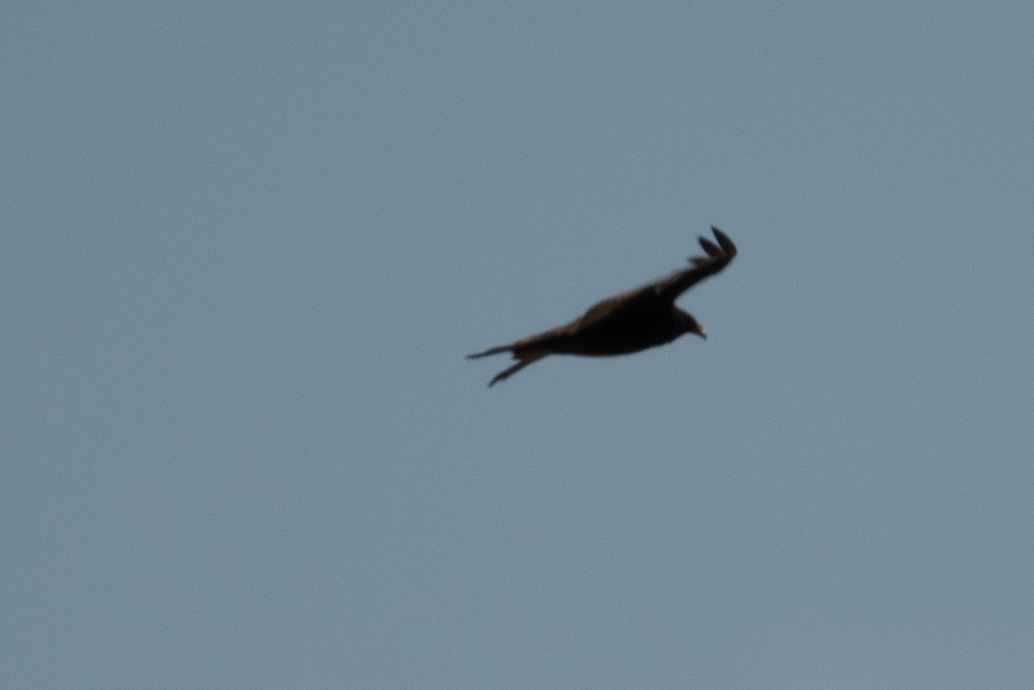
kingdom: Animalia
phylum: Chordata
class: Aves
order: Accipitriformes
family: Cathartidae
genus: Cathartes
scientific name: Cathartes aura
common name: Turkey vulture
